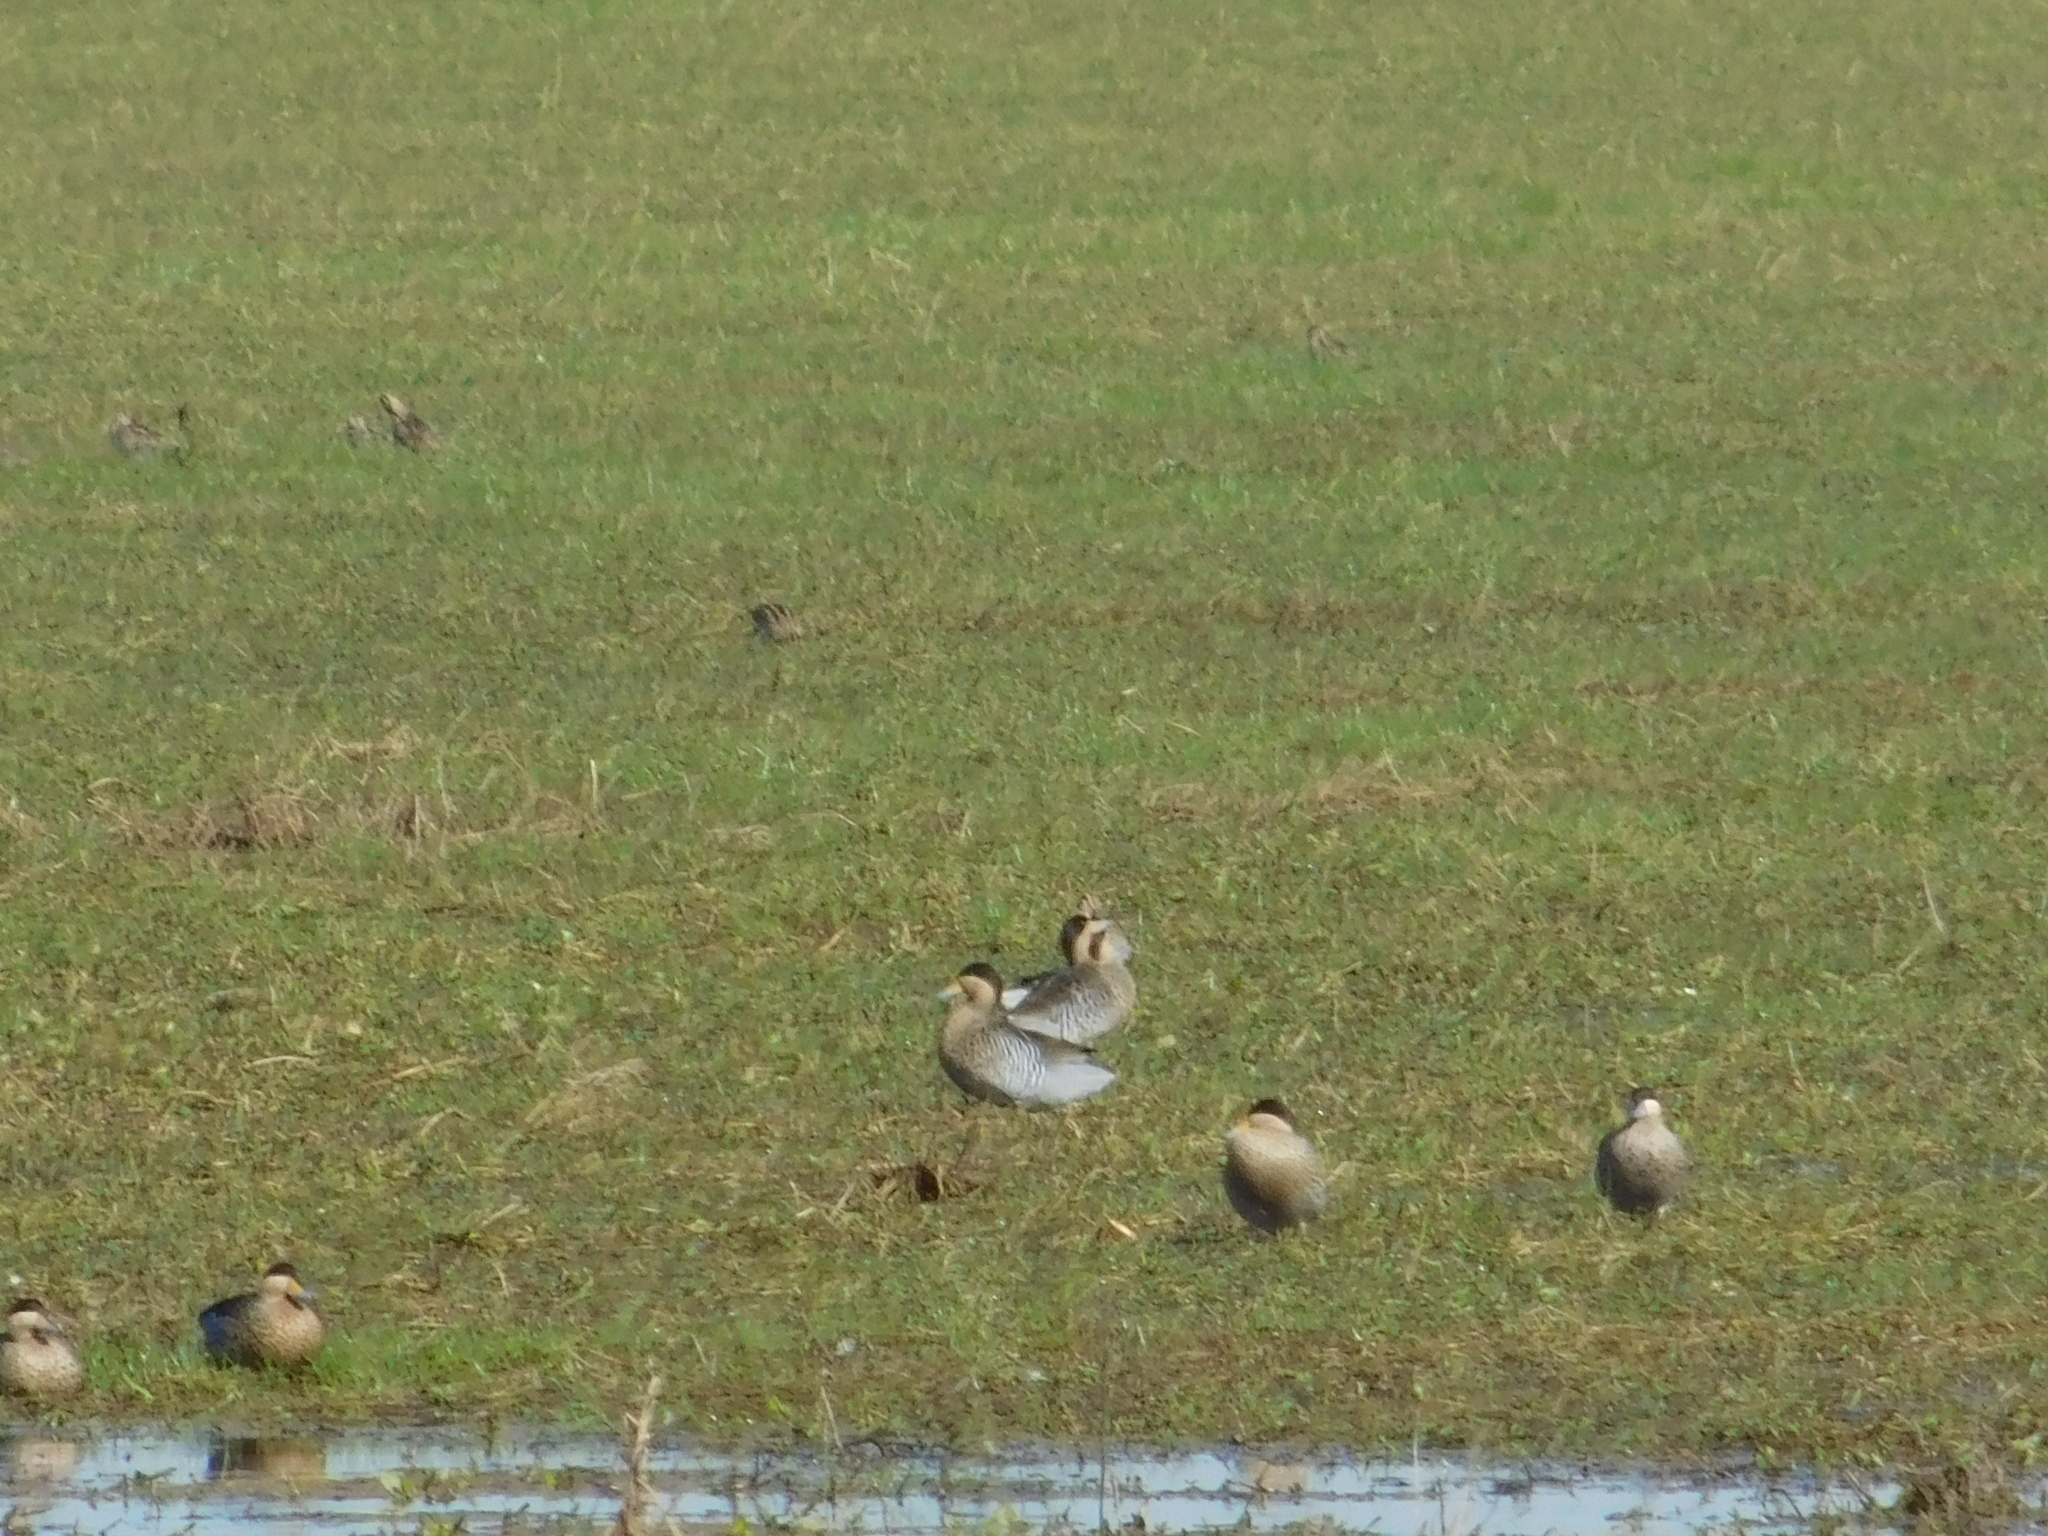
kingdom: Animalia
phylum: Chordata
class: Aves
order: Anseriformes
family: Anatidae
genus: Spatula
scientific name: Spatula versicolor
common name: Silver teal
